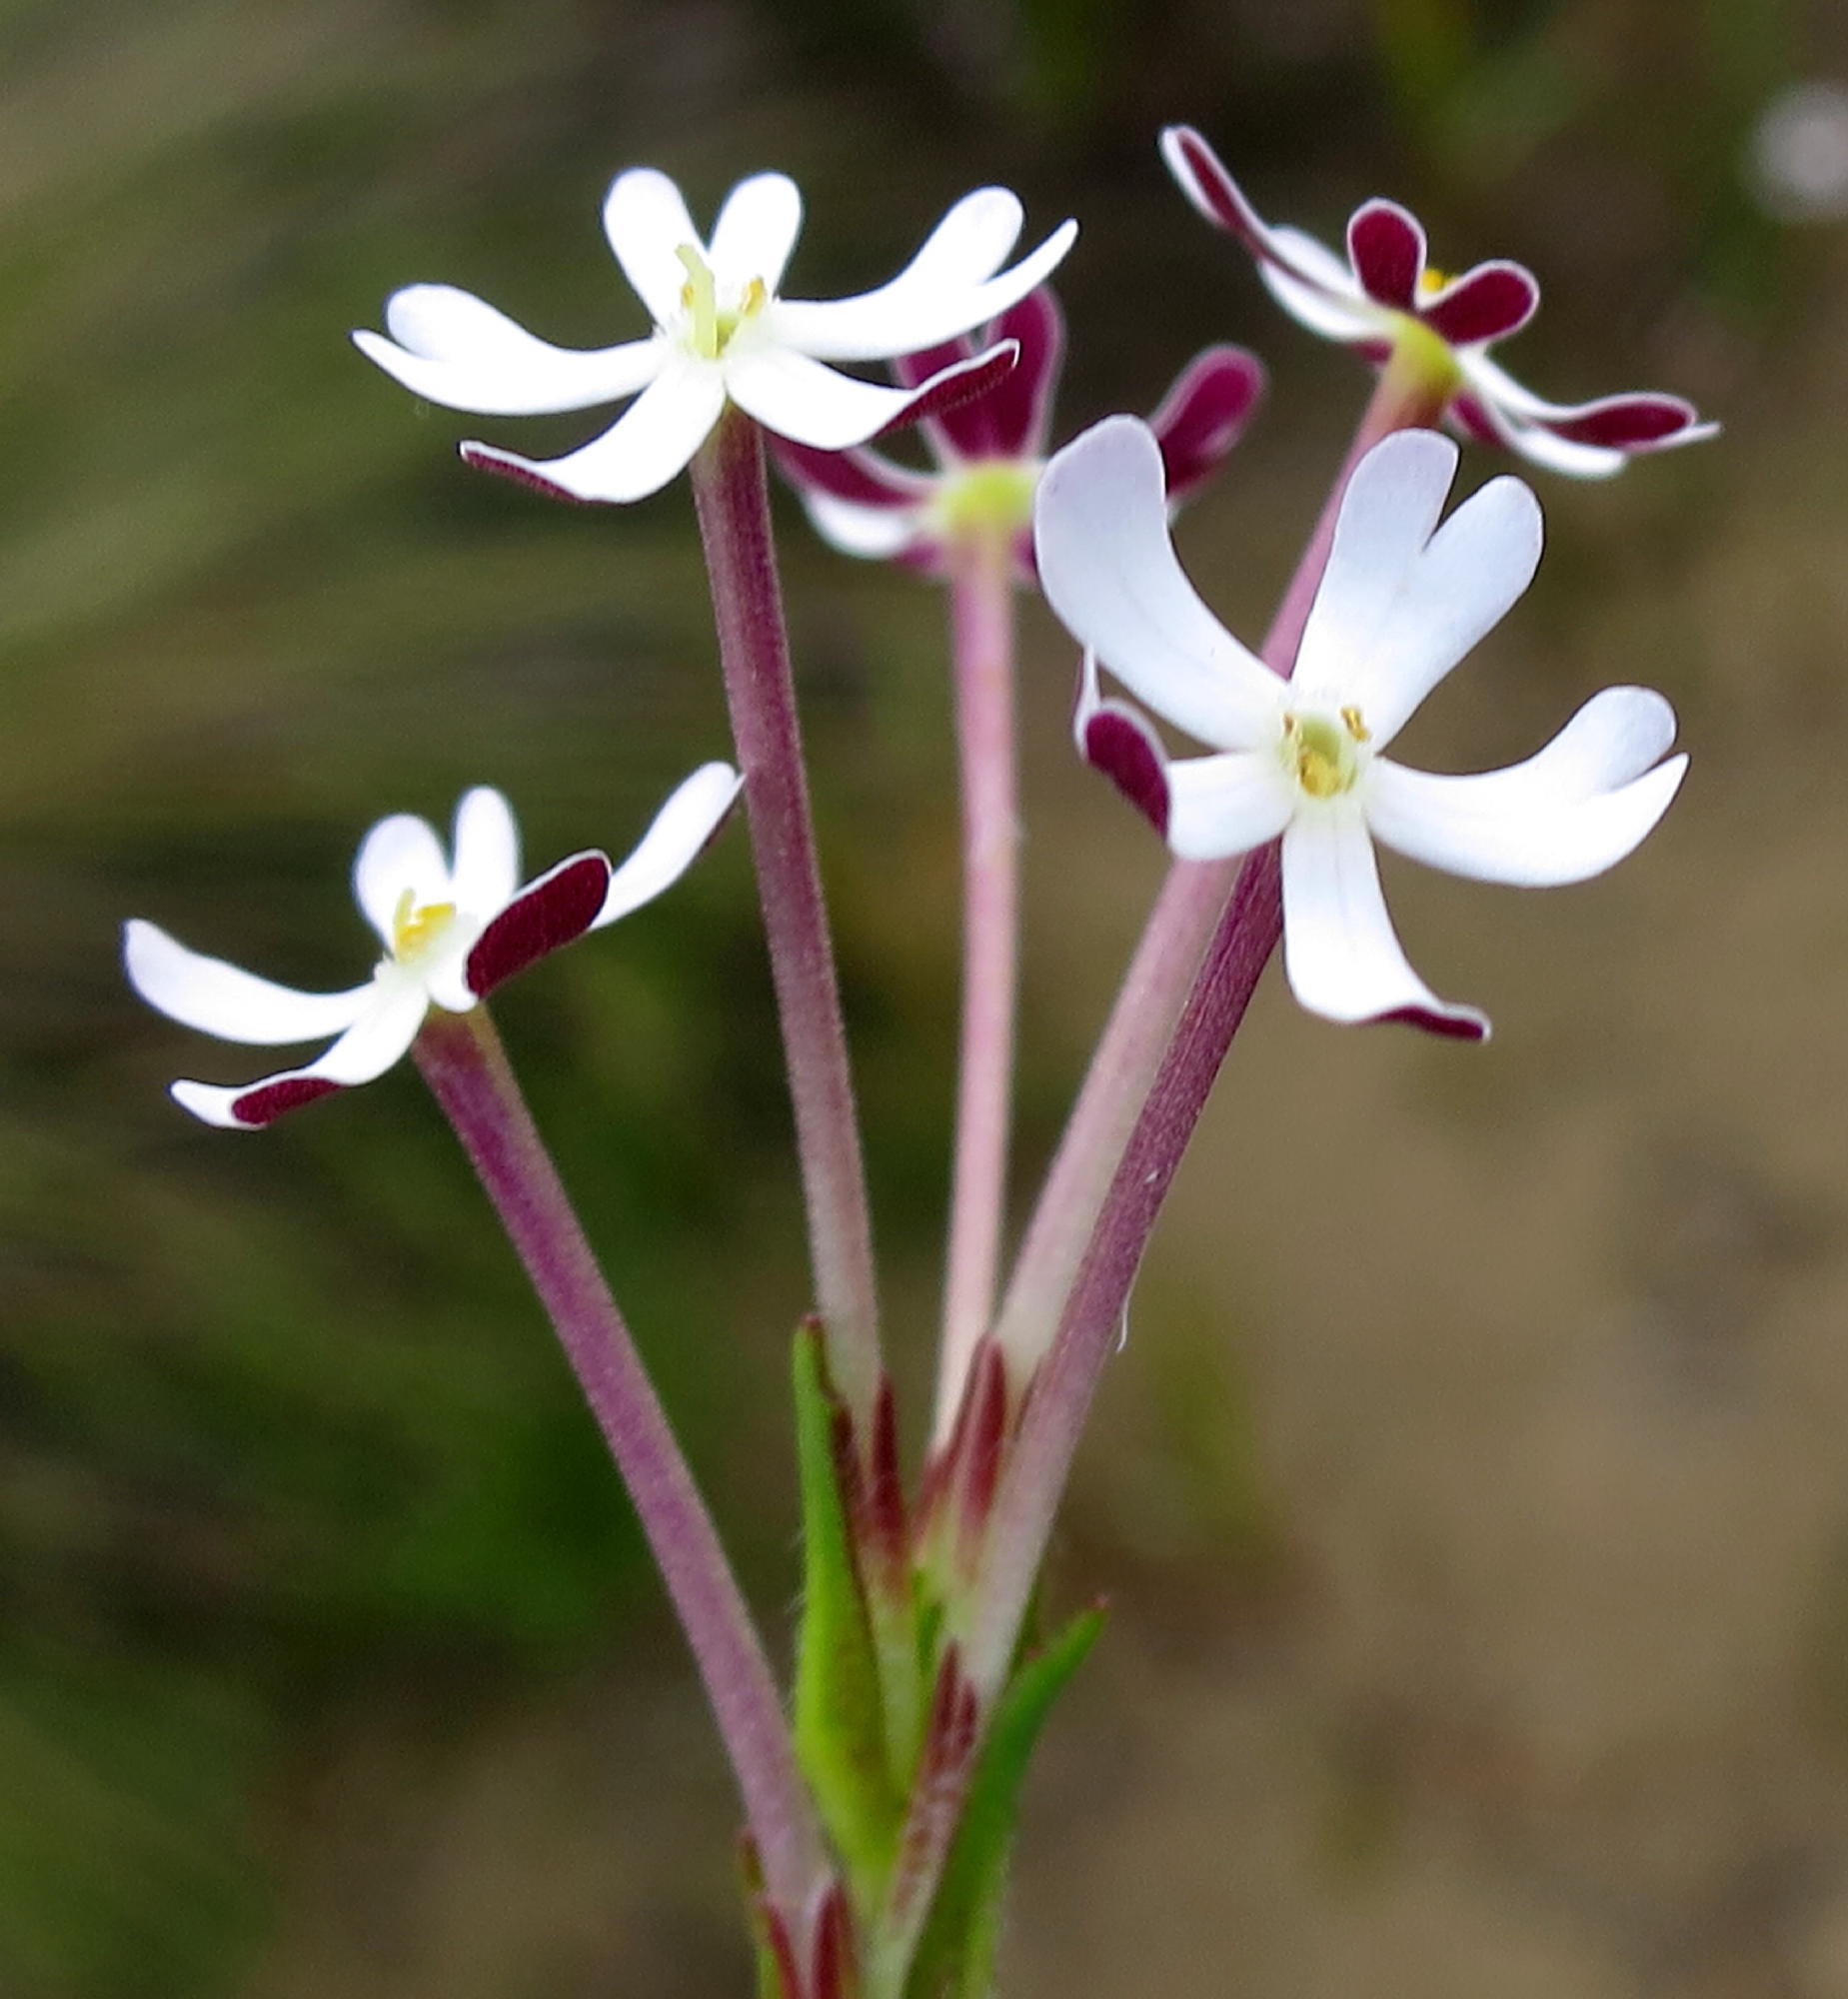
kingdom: Plantae
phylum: Tracheophyta
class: Magnoliopsida
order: Lamiales
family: Scrophulariaceae
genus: Zaluzianskya
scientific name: Zaluzianskya capensis
